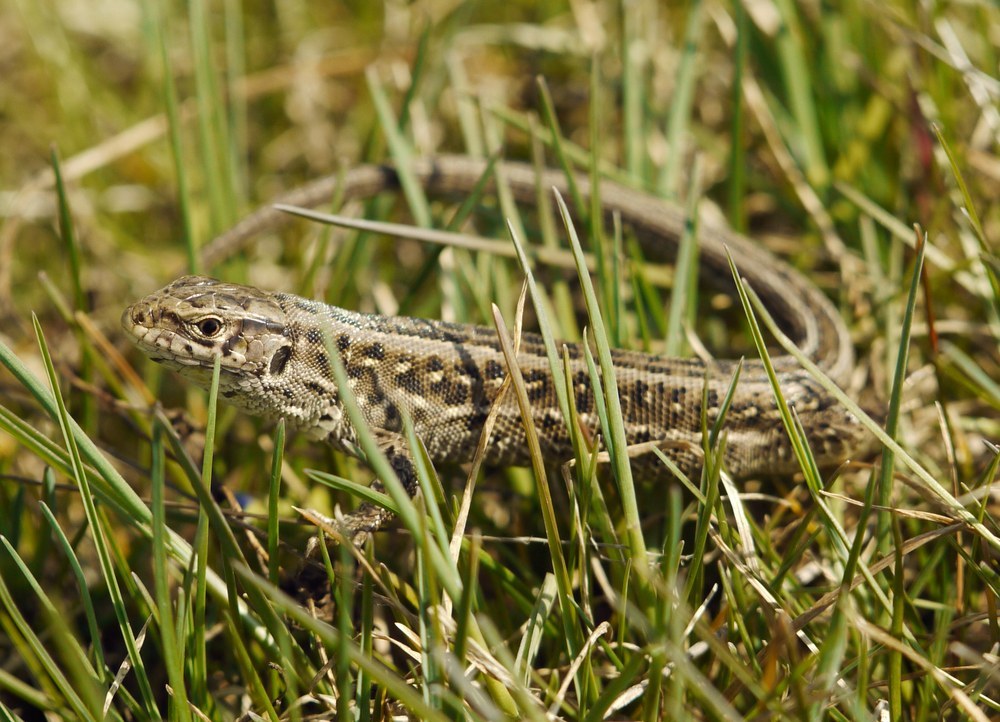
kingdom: Animalia
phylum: Chordata
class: Squamata
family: Lacertidae
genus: Lacerta
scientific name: Lacerta agilis
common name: Sand lizard
